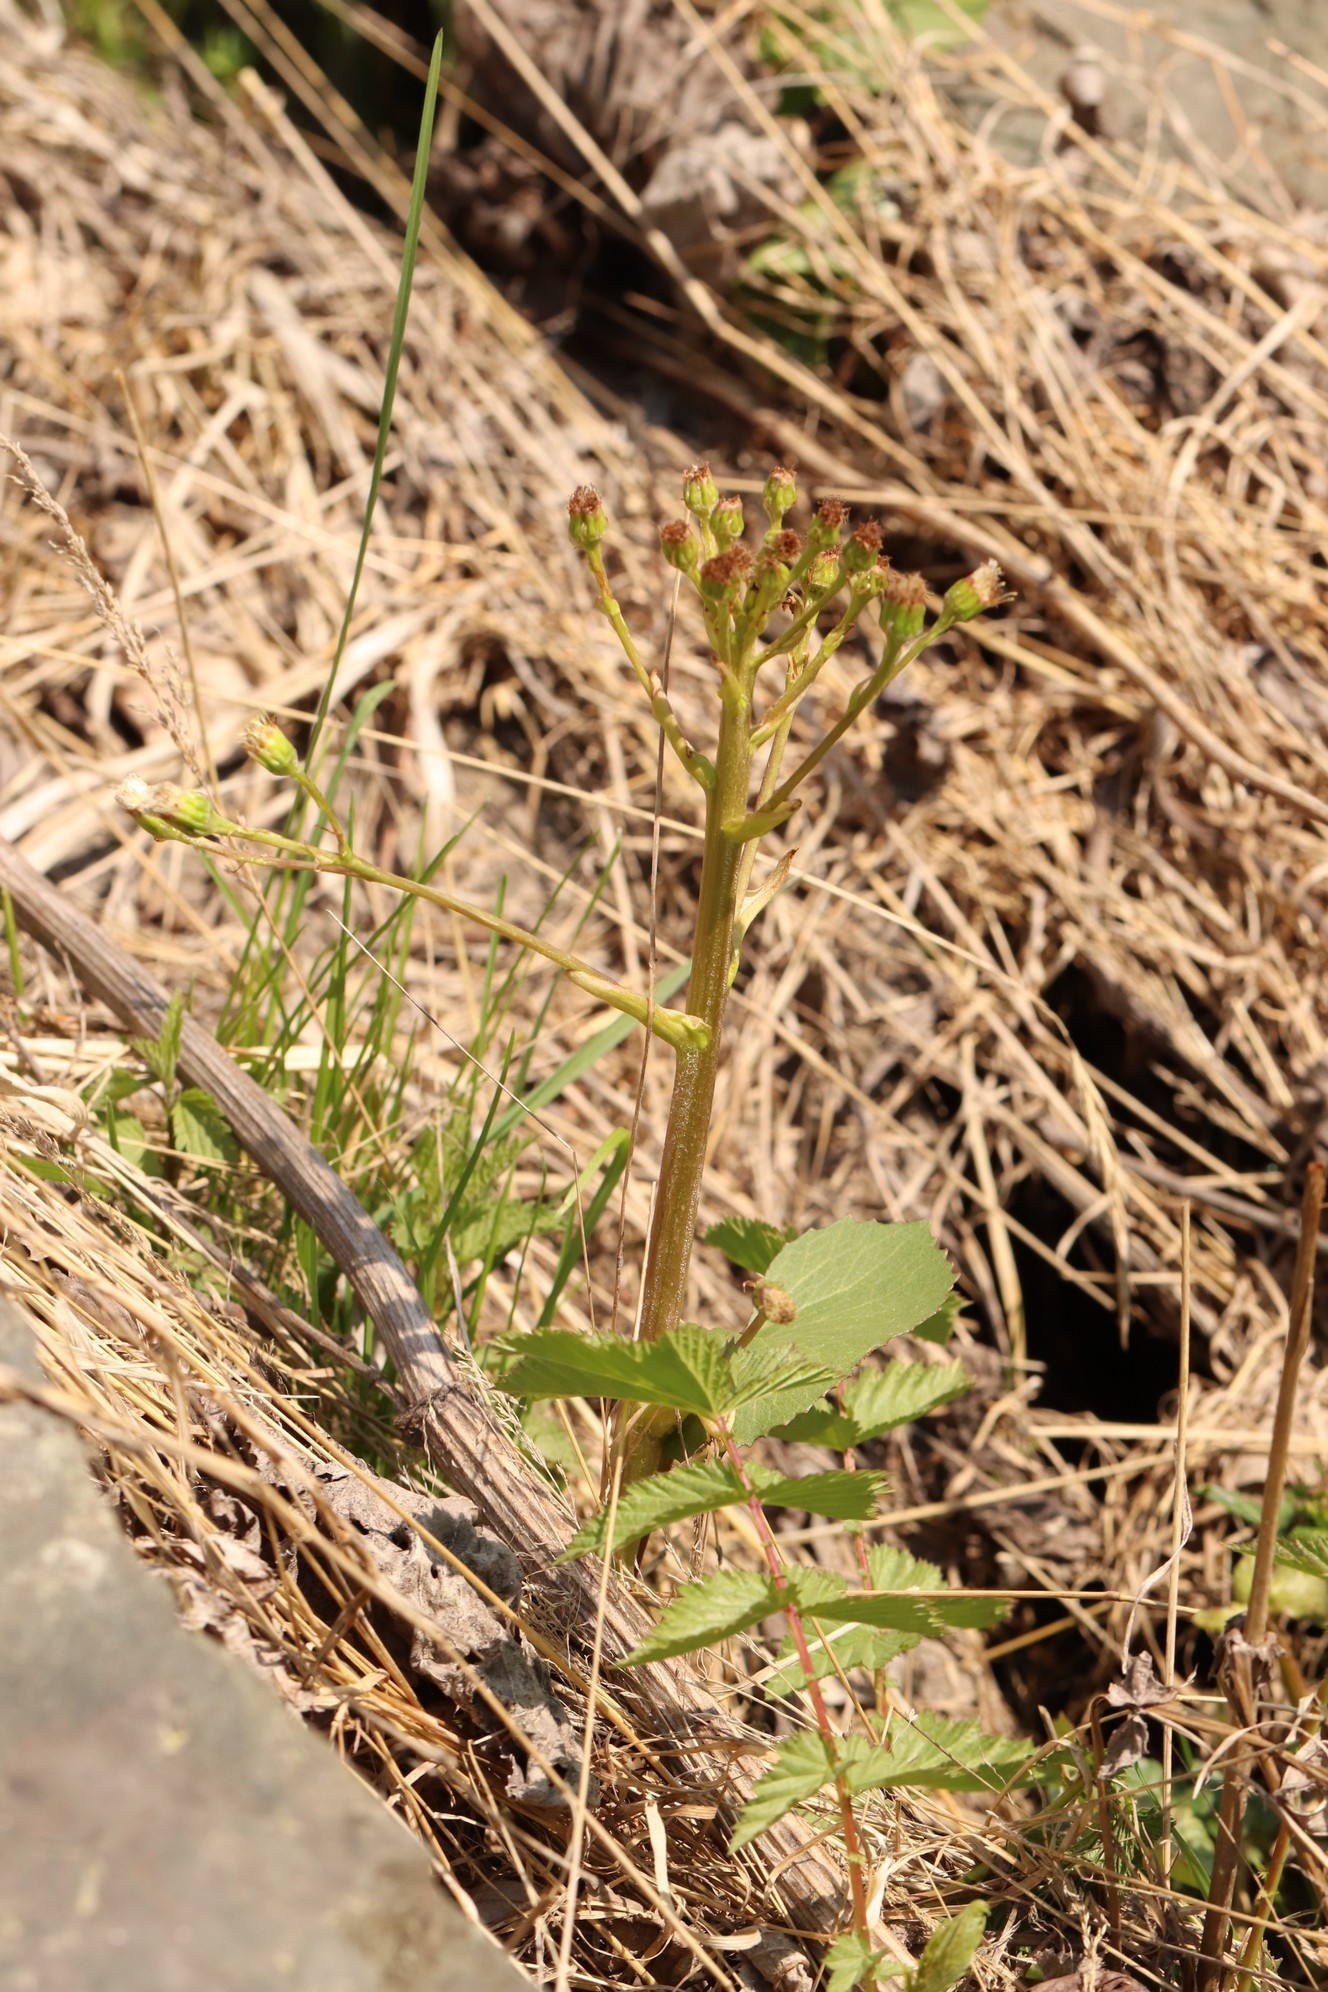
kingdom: Plantae
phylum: Tracheophyta
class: Magnoliopsida
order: Asterales
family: Asteraceae
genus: Petasites
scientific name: Petasites radiatus
